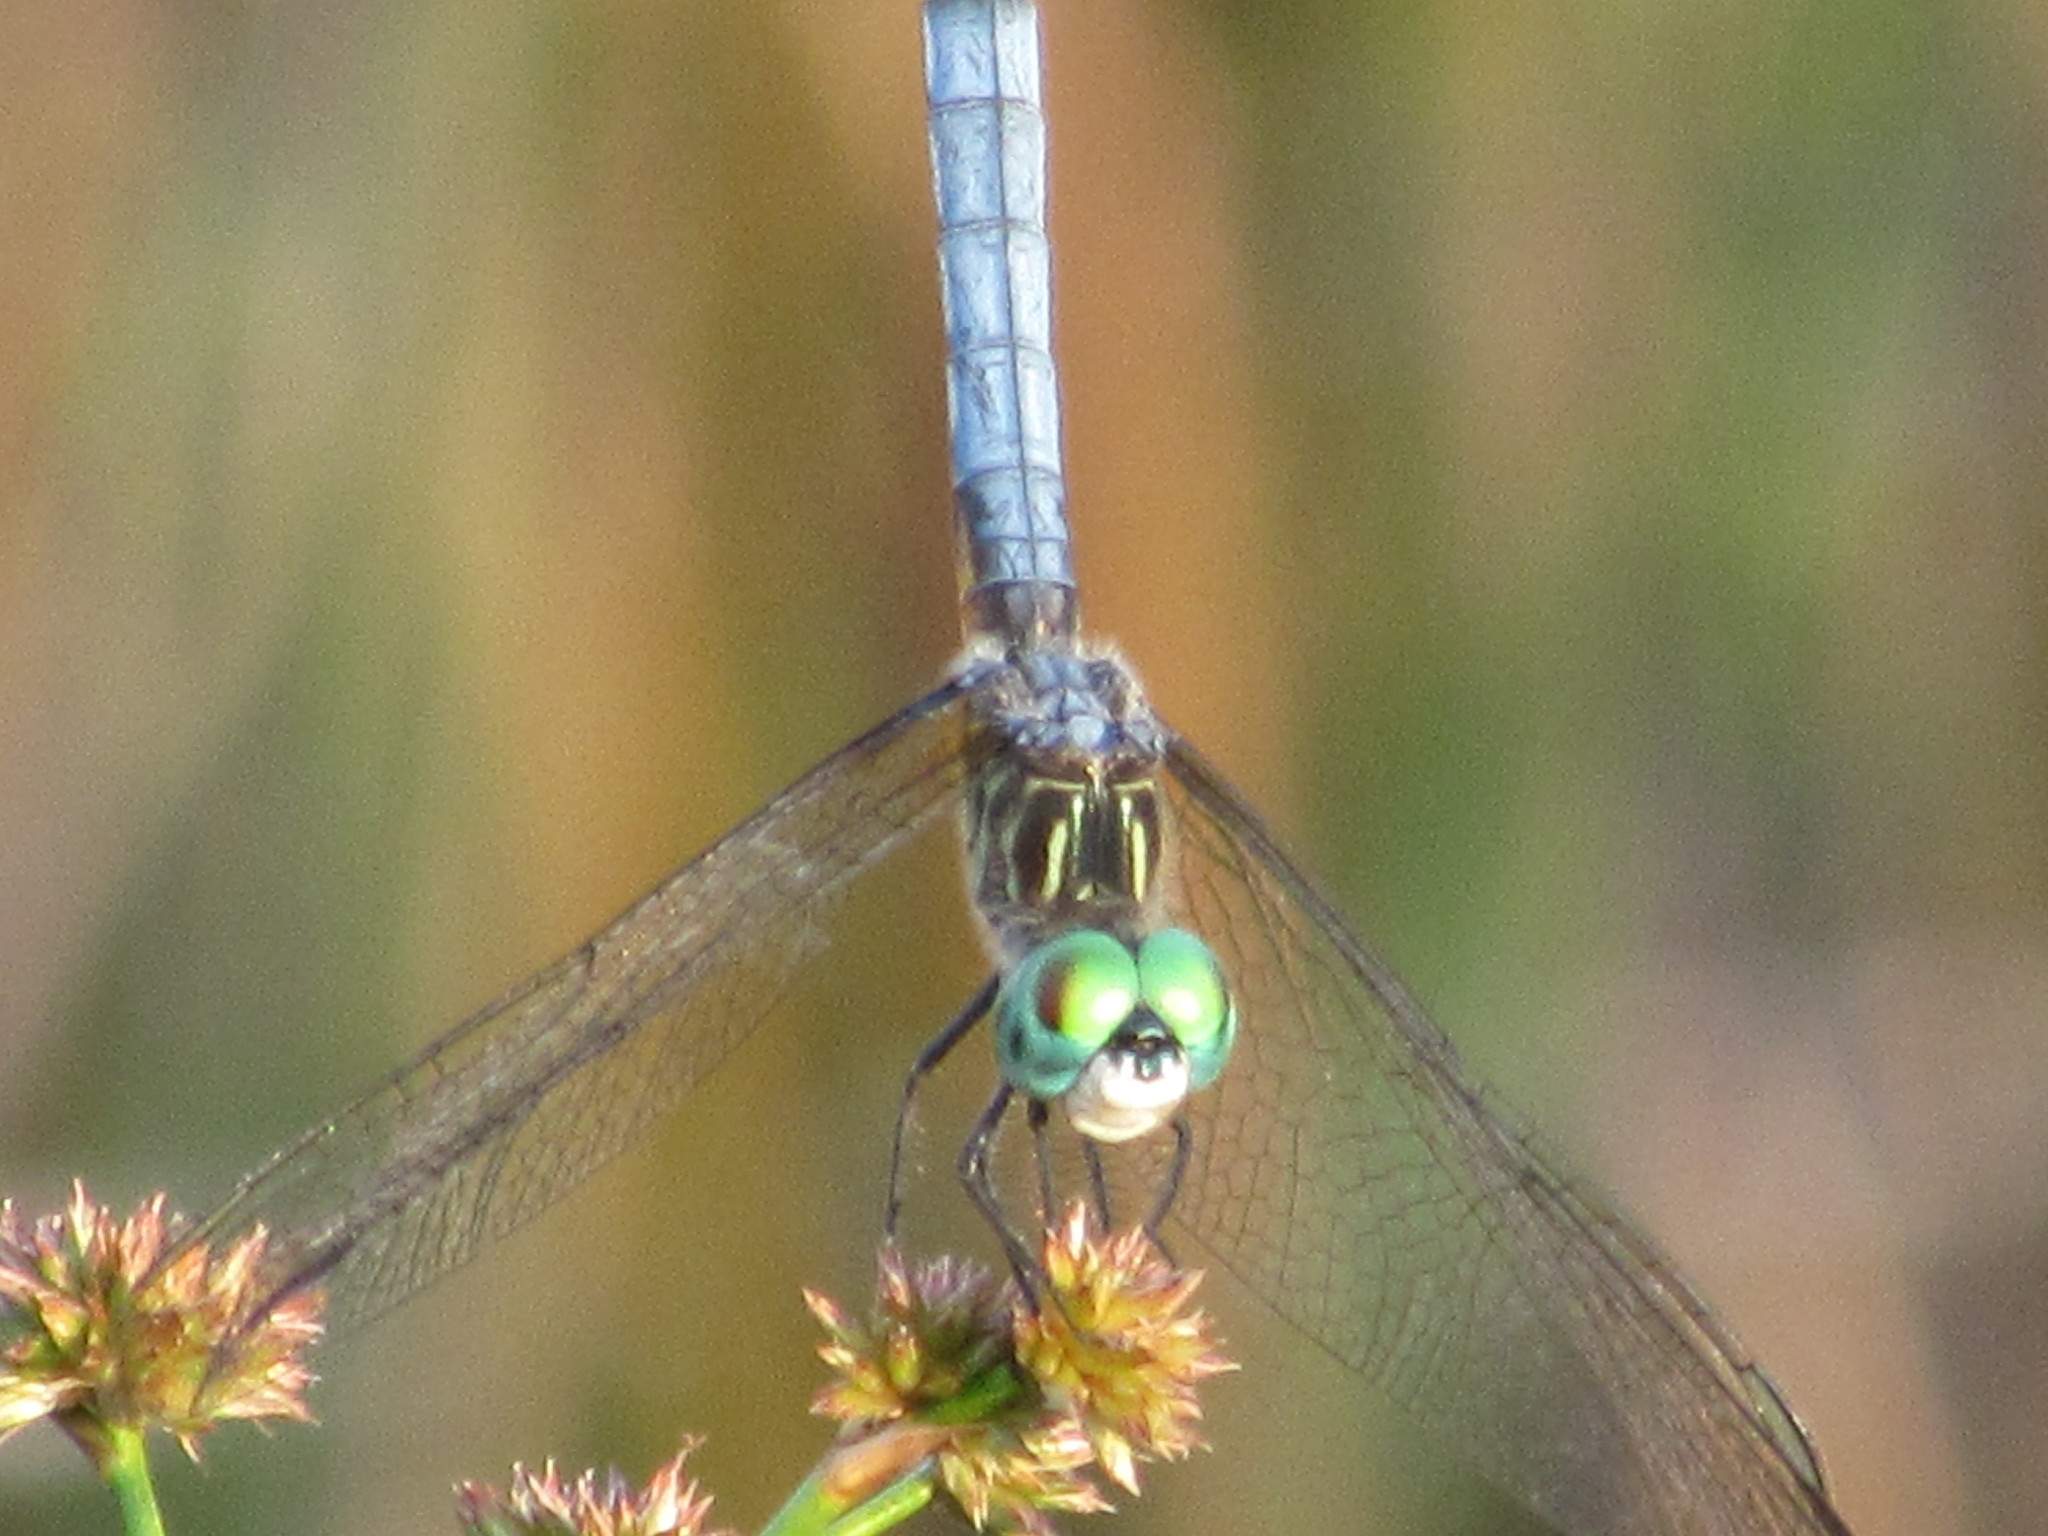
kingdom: Animalia
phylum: Arthropoda
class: Insecta
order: Odonata
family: Libellulidae
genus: Pachydiplax
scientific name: Pachydiplax longipennis
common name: Blue dasher
